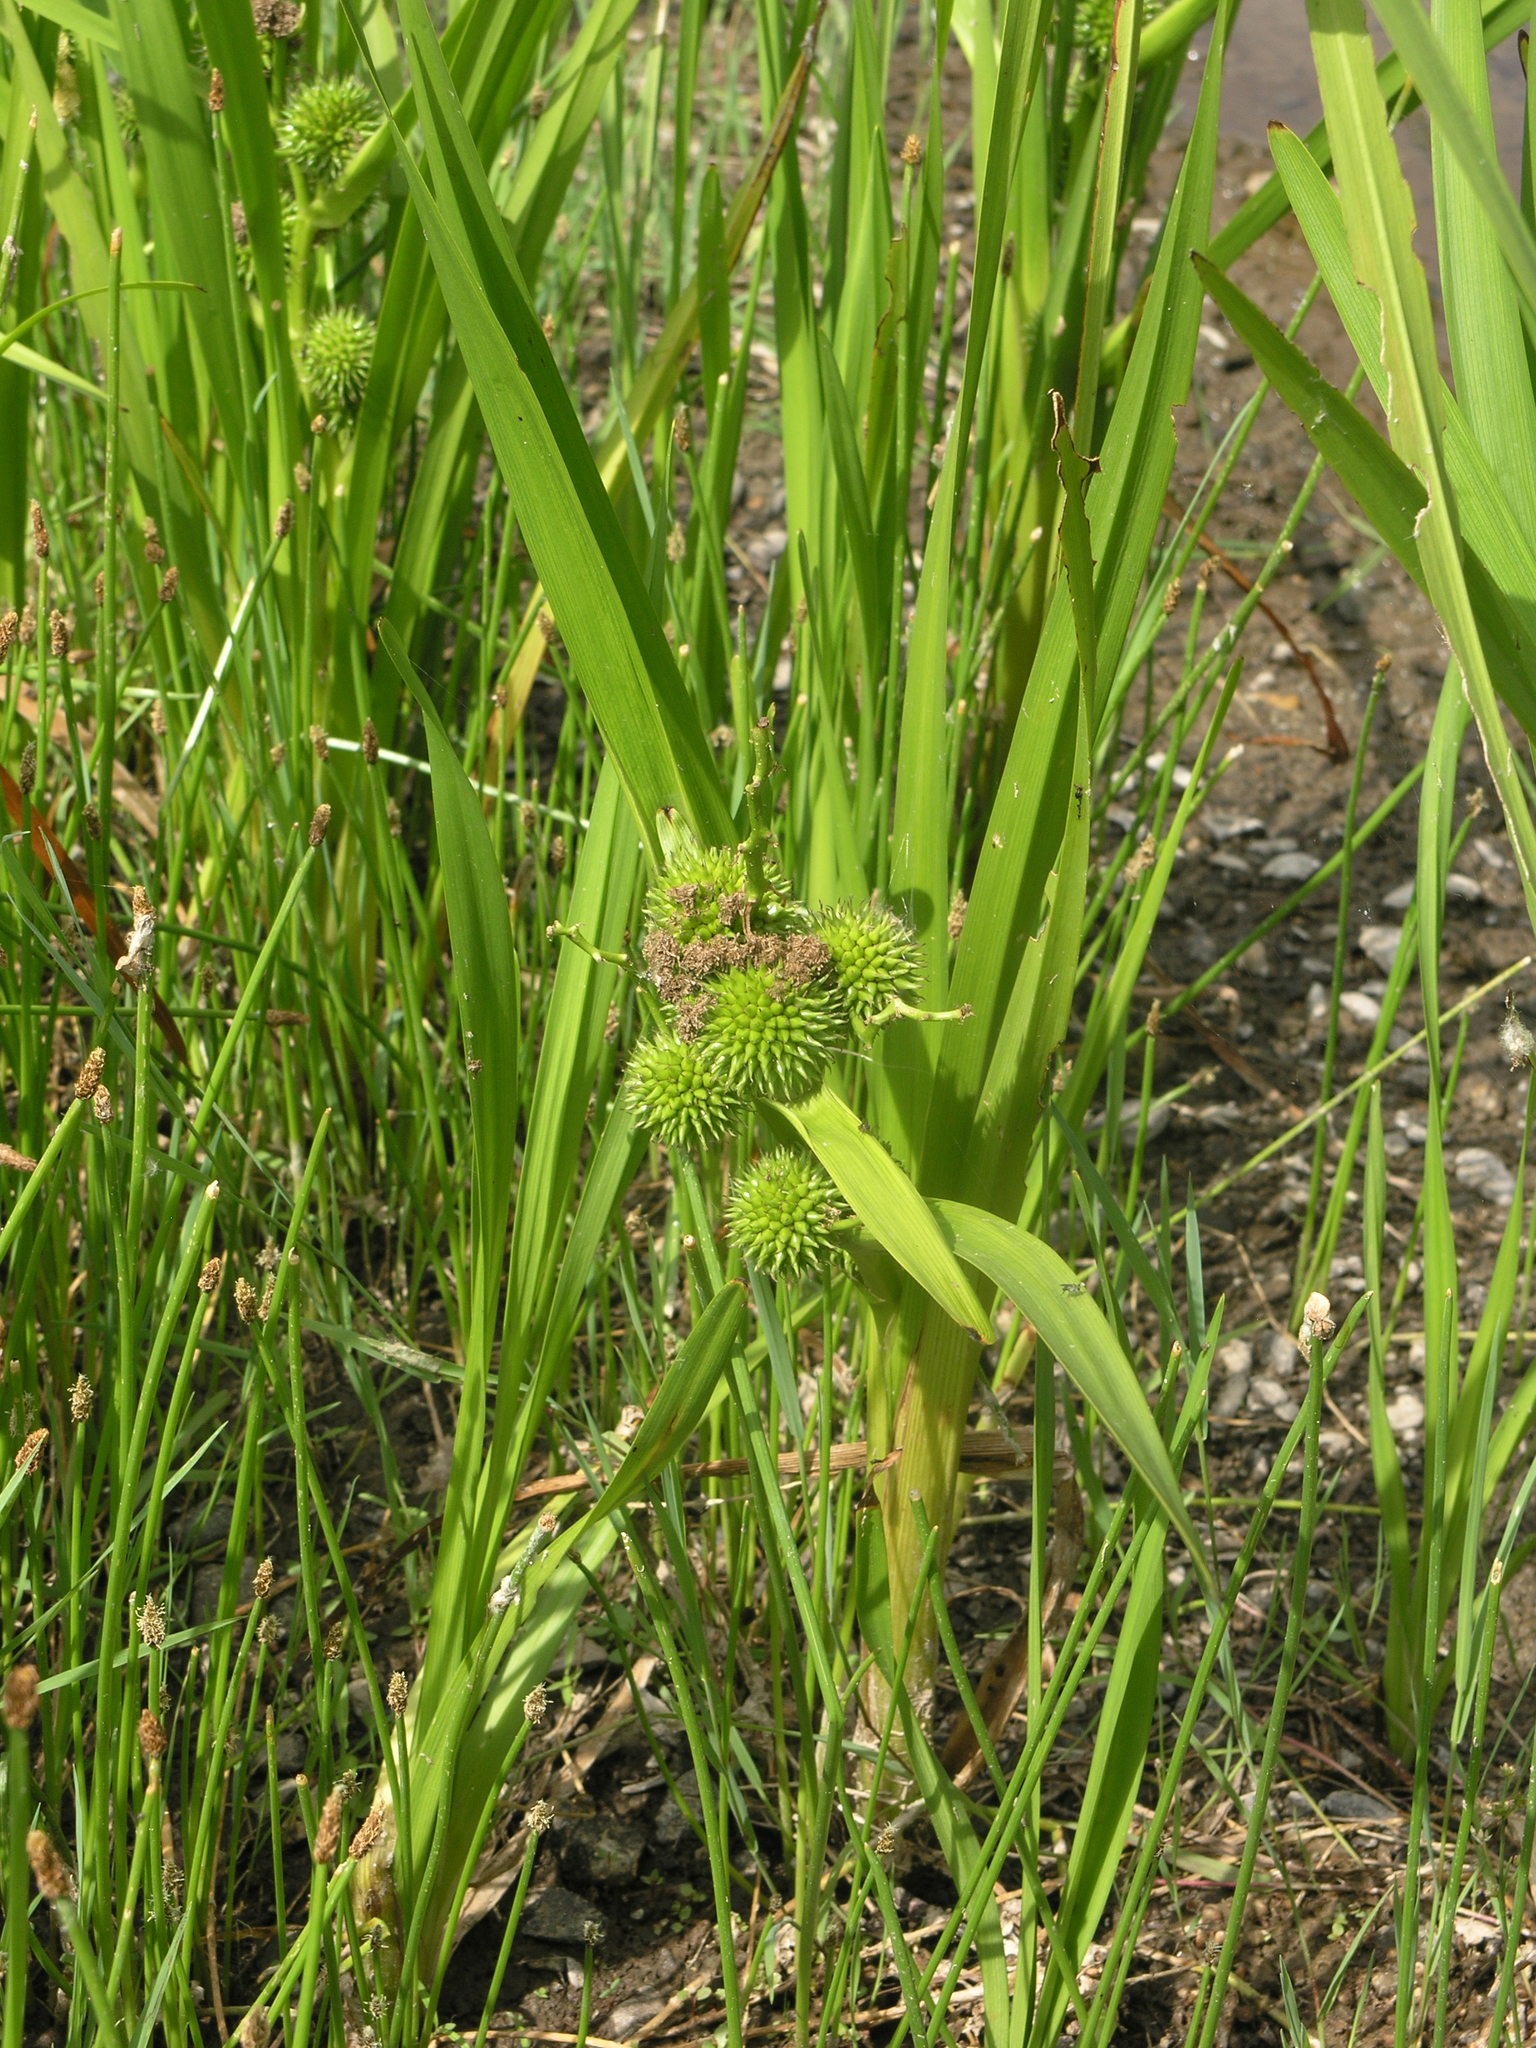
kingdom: Plantae
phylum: Tracheophyta
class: Liliopsida
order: Poales
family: Typhaceae
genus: Sparganium
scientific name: Sparganium erectum
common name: Branched bur-reed
